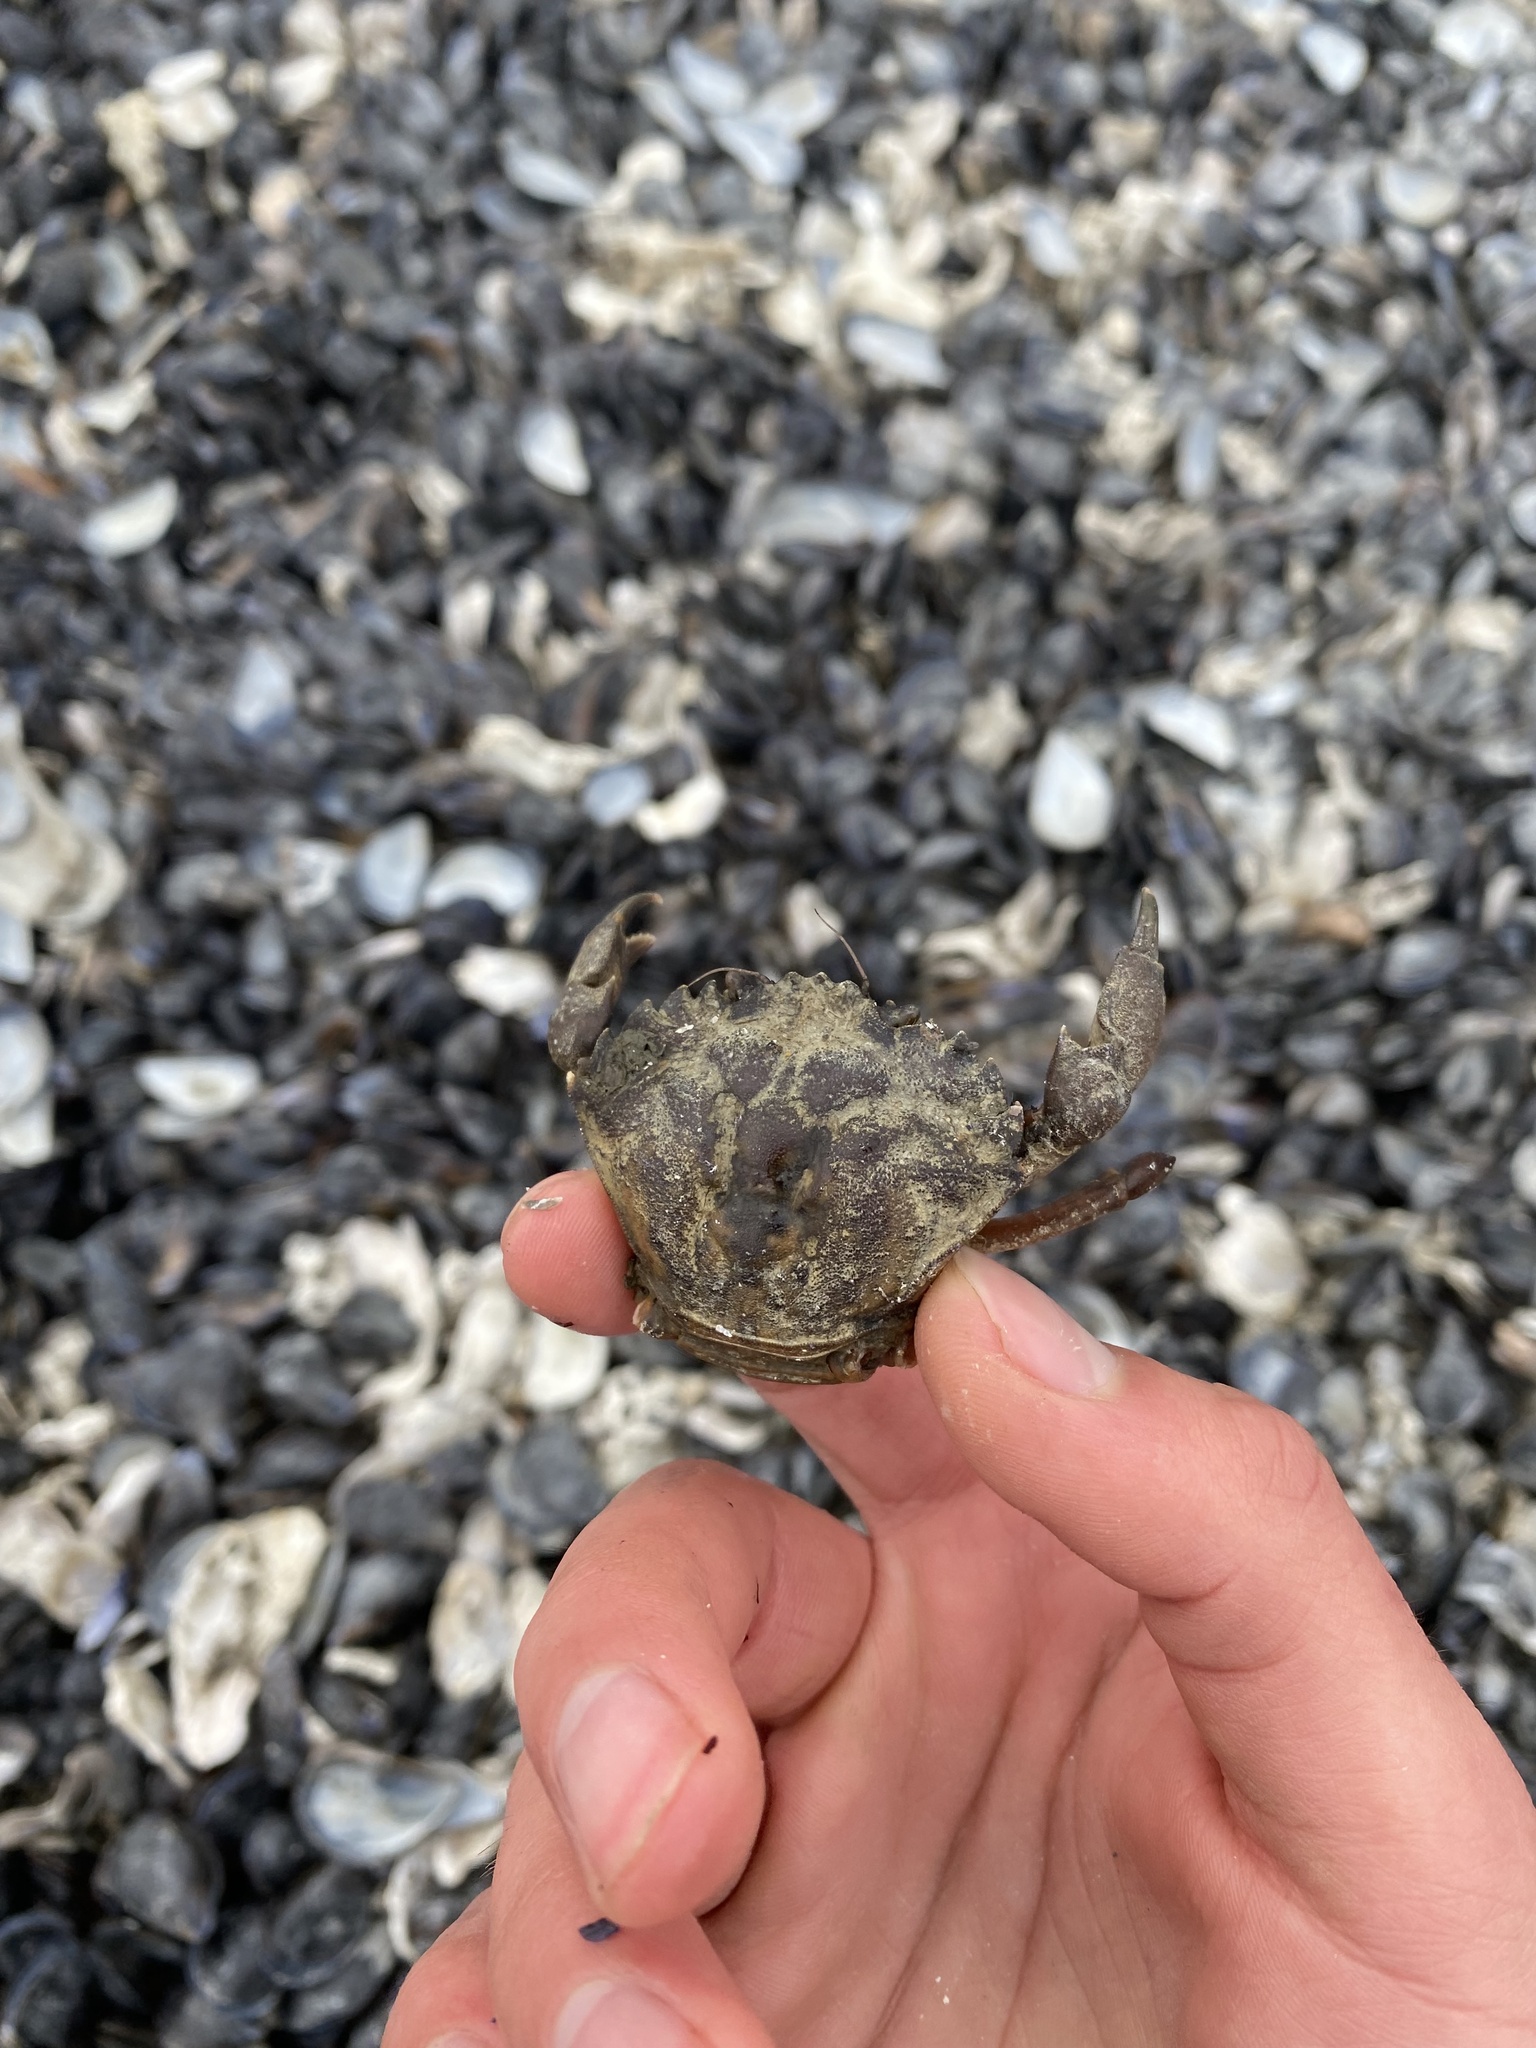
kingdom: Animalia
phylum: Arthropoda
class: Malacostraca
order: Decapoda
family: Carcinidae
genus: Carcinus
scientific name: Carcinus maenas
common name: European green crab
